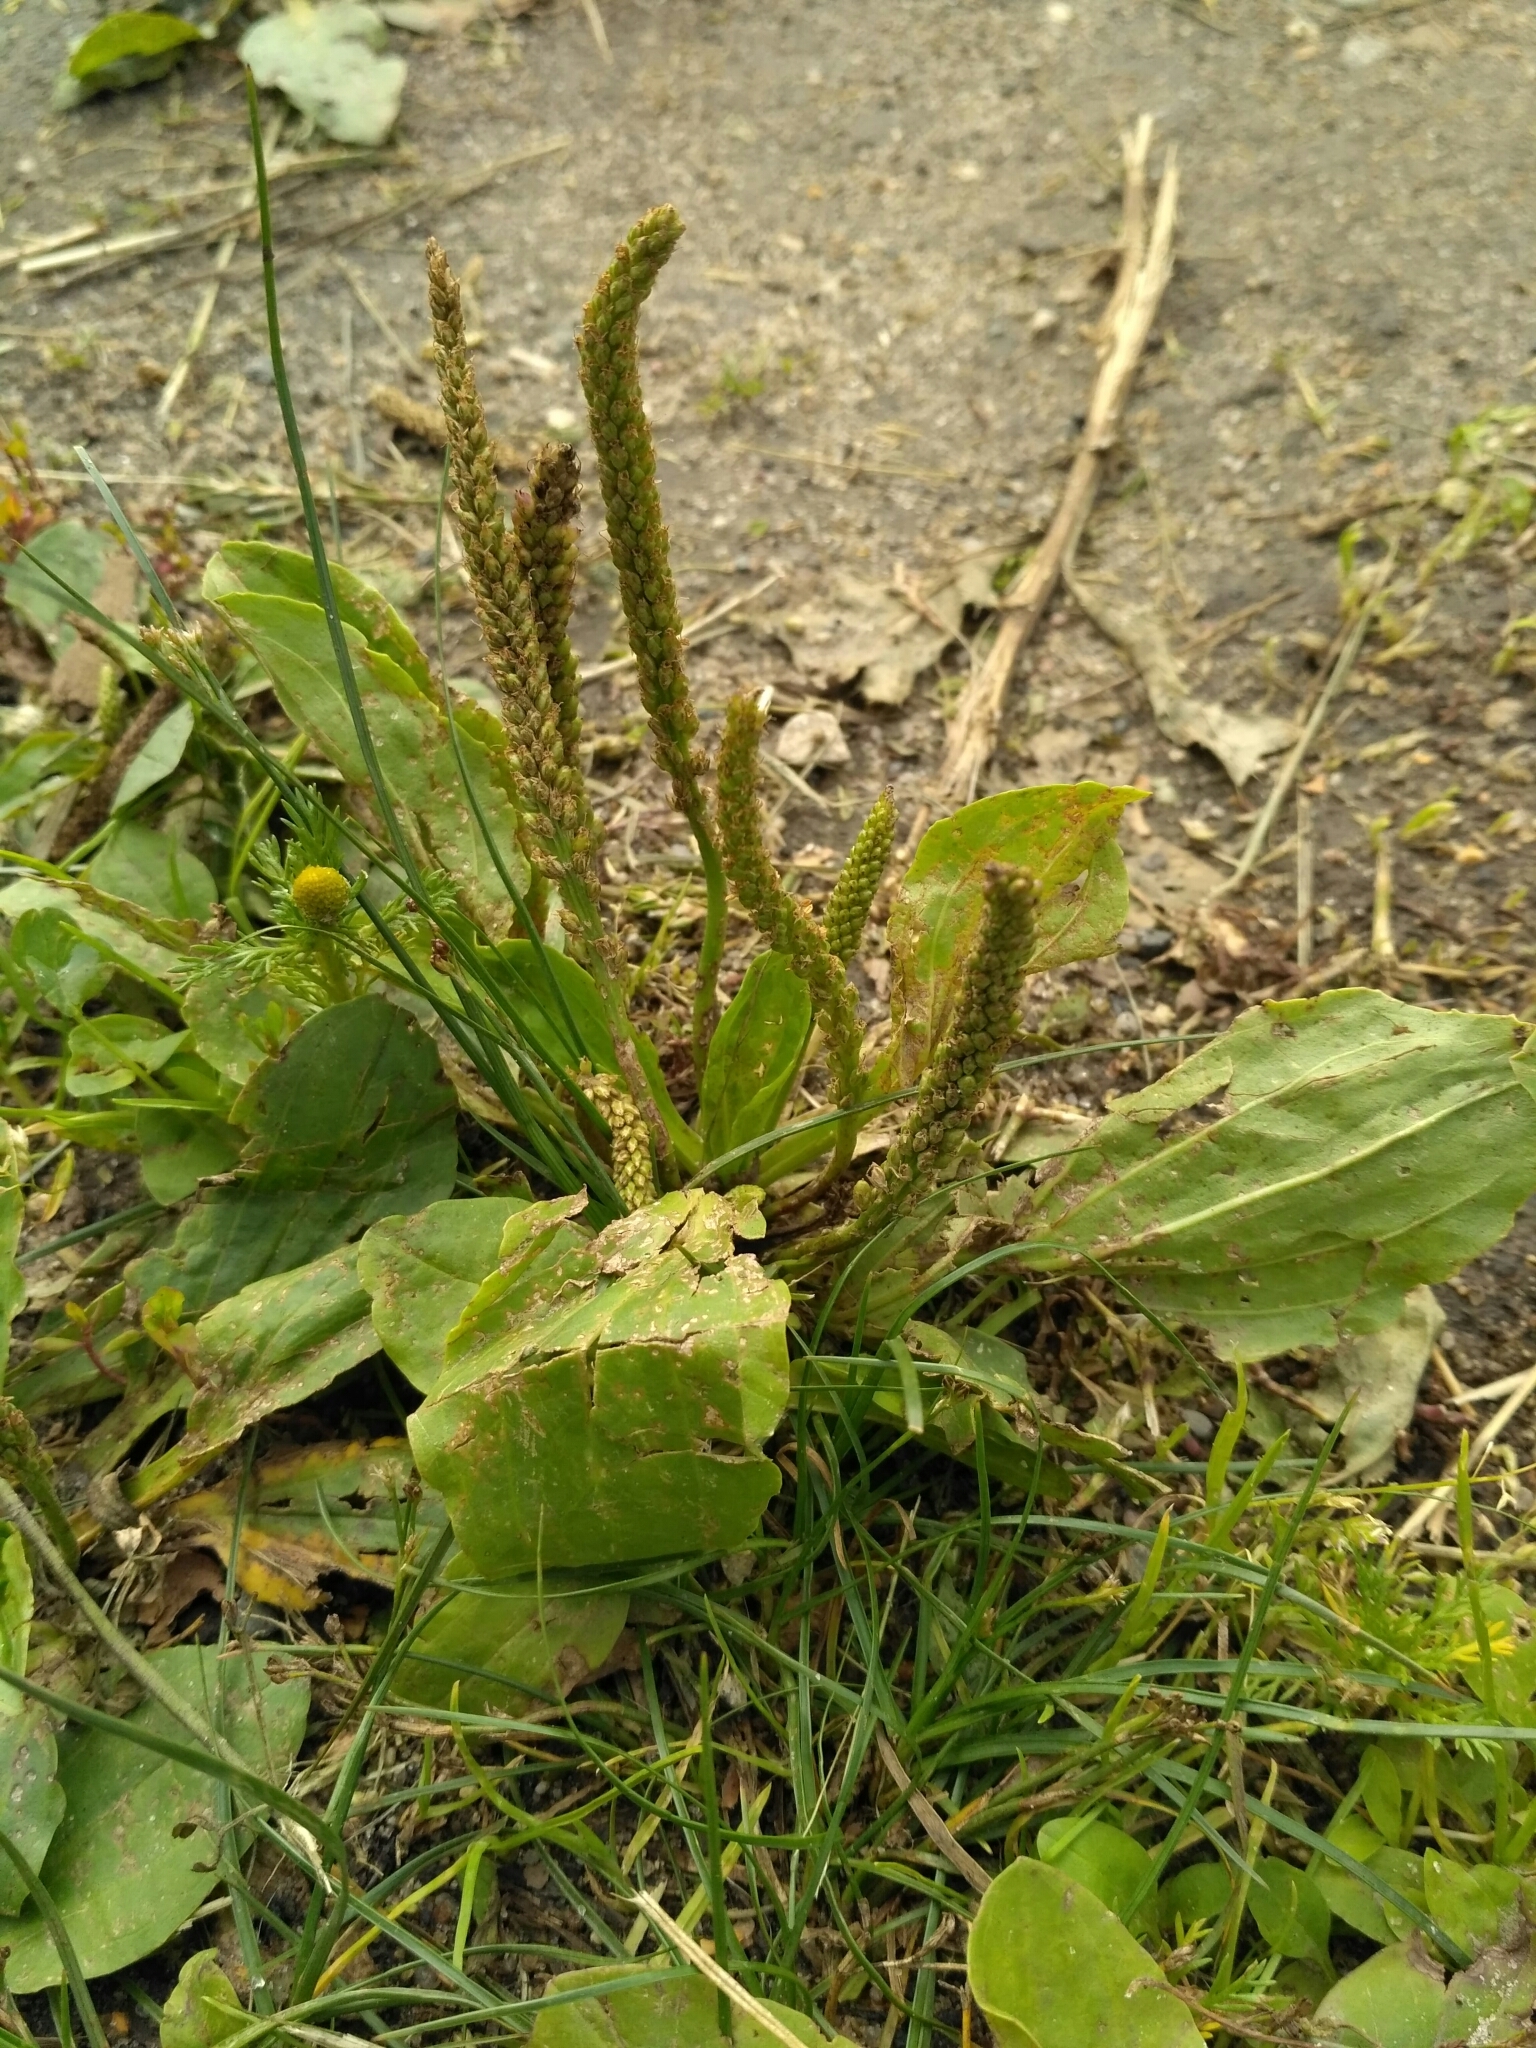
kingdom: Plantae
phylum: Tracheophyta
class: Magnoliopsida
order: Lamiales
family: Plantaginaceae
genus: Plantago
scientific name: Plantago major
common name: Common plantain
